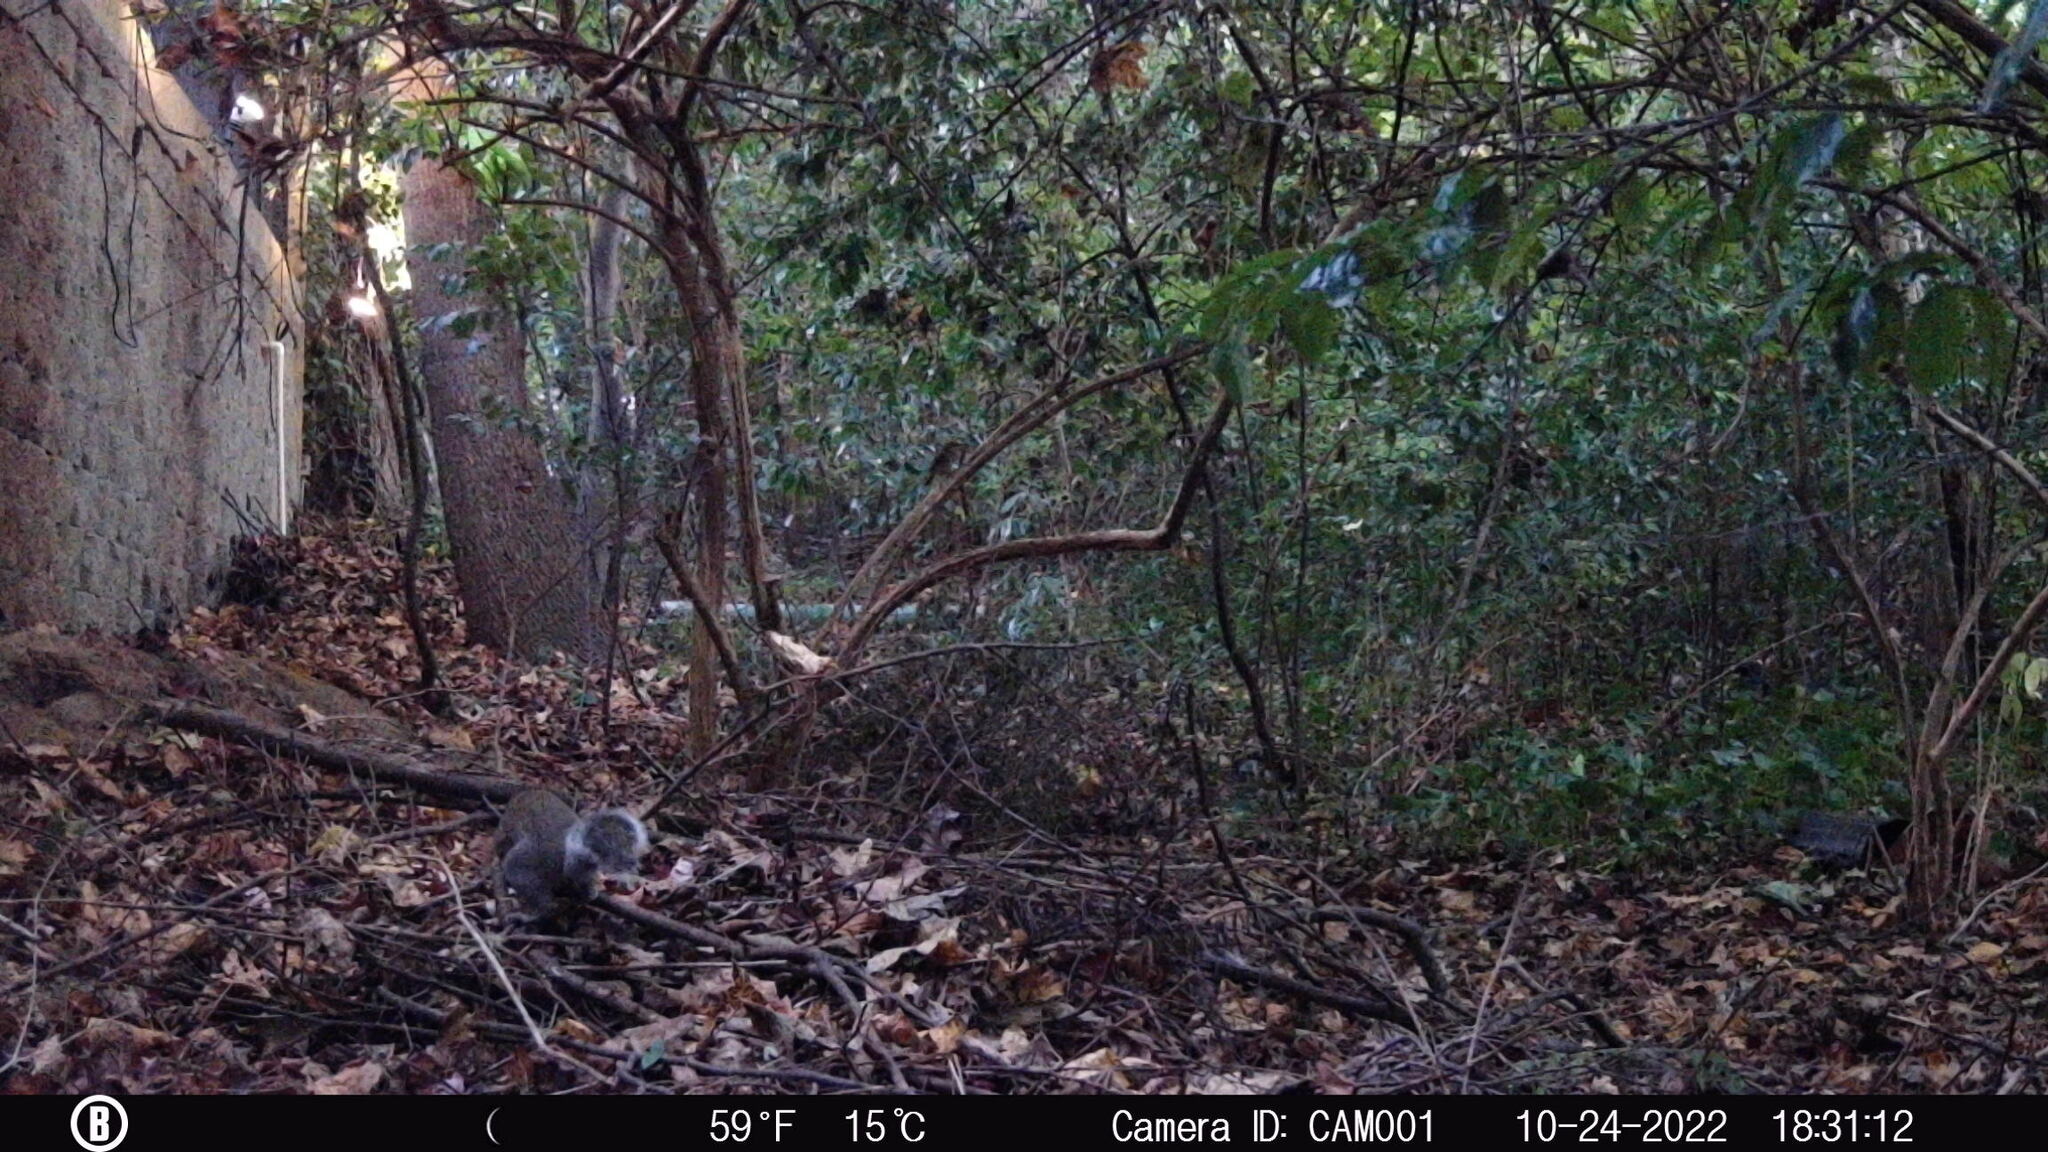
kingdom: Animalia
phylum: Chordata
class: Mammalia
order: Rodentia
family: Sciuridae
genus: Sciurus
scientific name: Sciurus carolinensis
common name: Eastern gray squirrel
